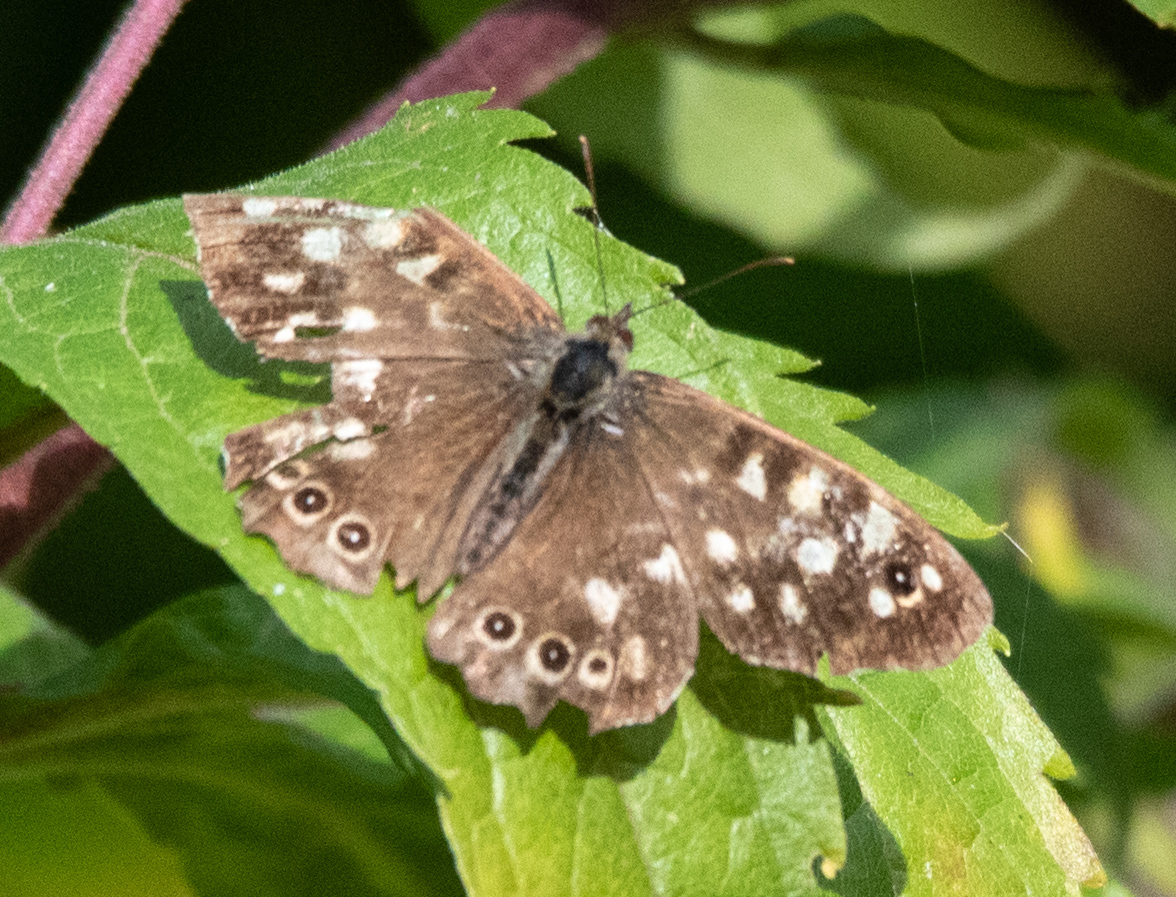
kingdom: Animalia
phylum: Arthropoda
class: Insecta
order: Lepidoptera
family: Nymphalidae
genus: Pararge
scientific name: Pararge aegeria
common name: Speckled wood
